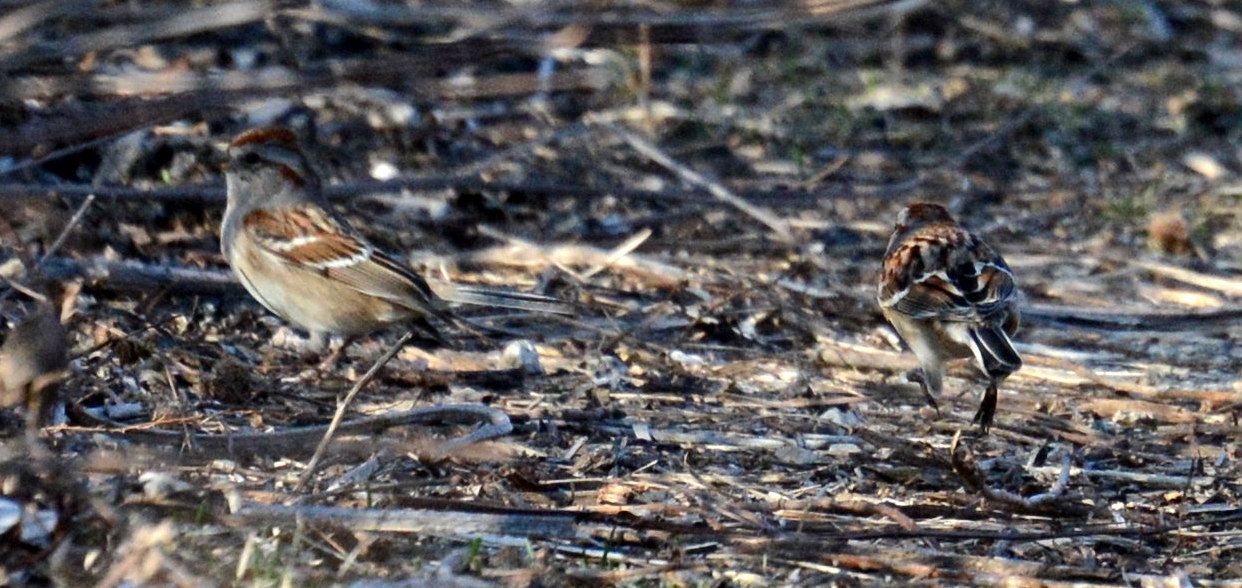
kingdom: Animalia
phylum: Chordata
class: Aves
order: Passeriformes
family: Passerellidae
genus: Spizelloides
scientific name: Spizelloides arborea
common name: American tree sparrow
